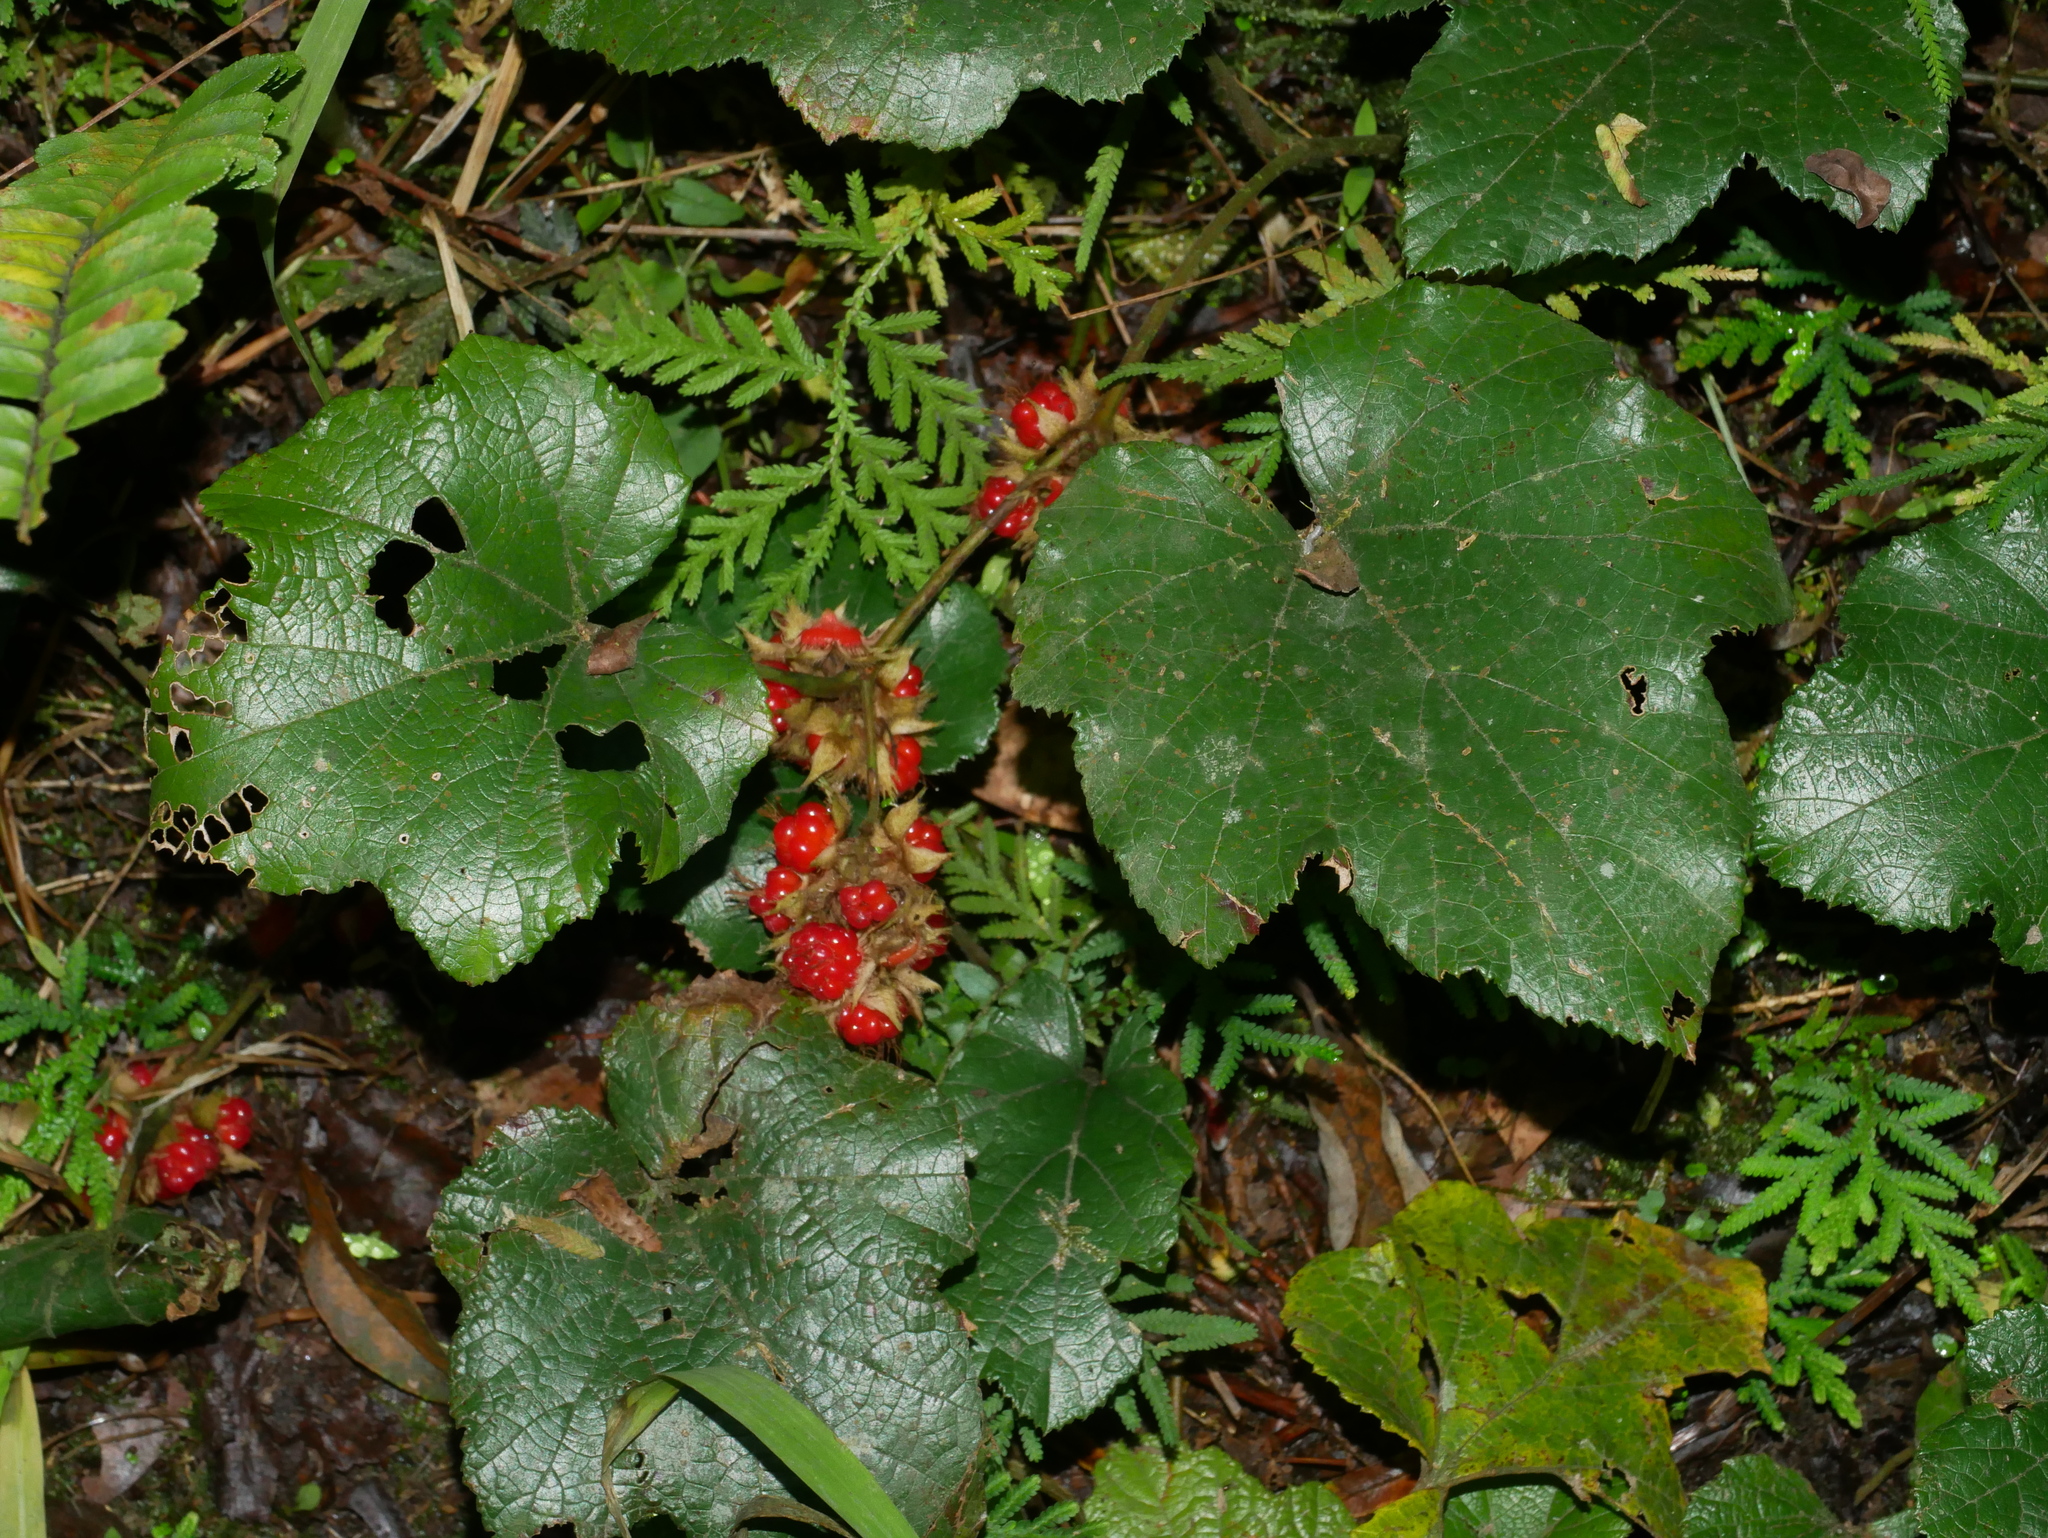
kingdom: Plantae
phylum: Tracheophyta
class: Magnoliopsida
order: Rosales
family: Rosaceae
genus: Rubus
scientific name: Rubus buergeri
